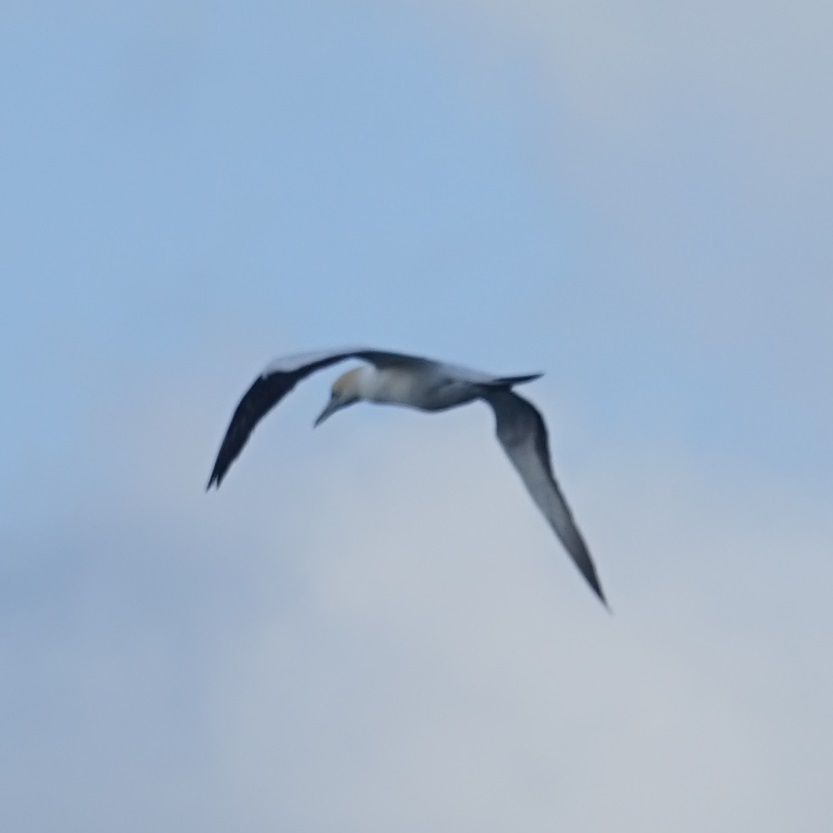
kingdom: Animalia
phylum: Chordata
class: Aves
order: Suliformes
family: Sulidae
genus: Morus
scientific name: Morus serrator
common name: Australasian gannet
